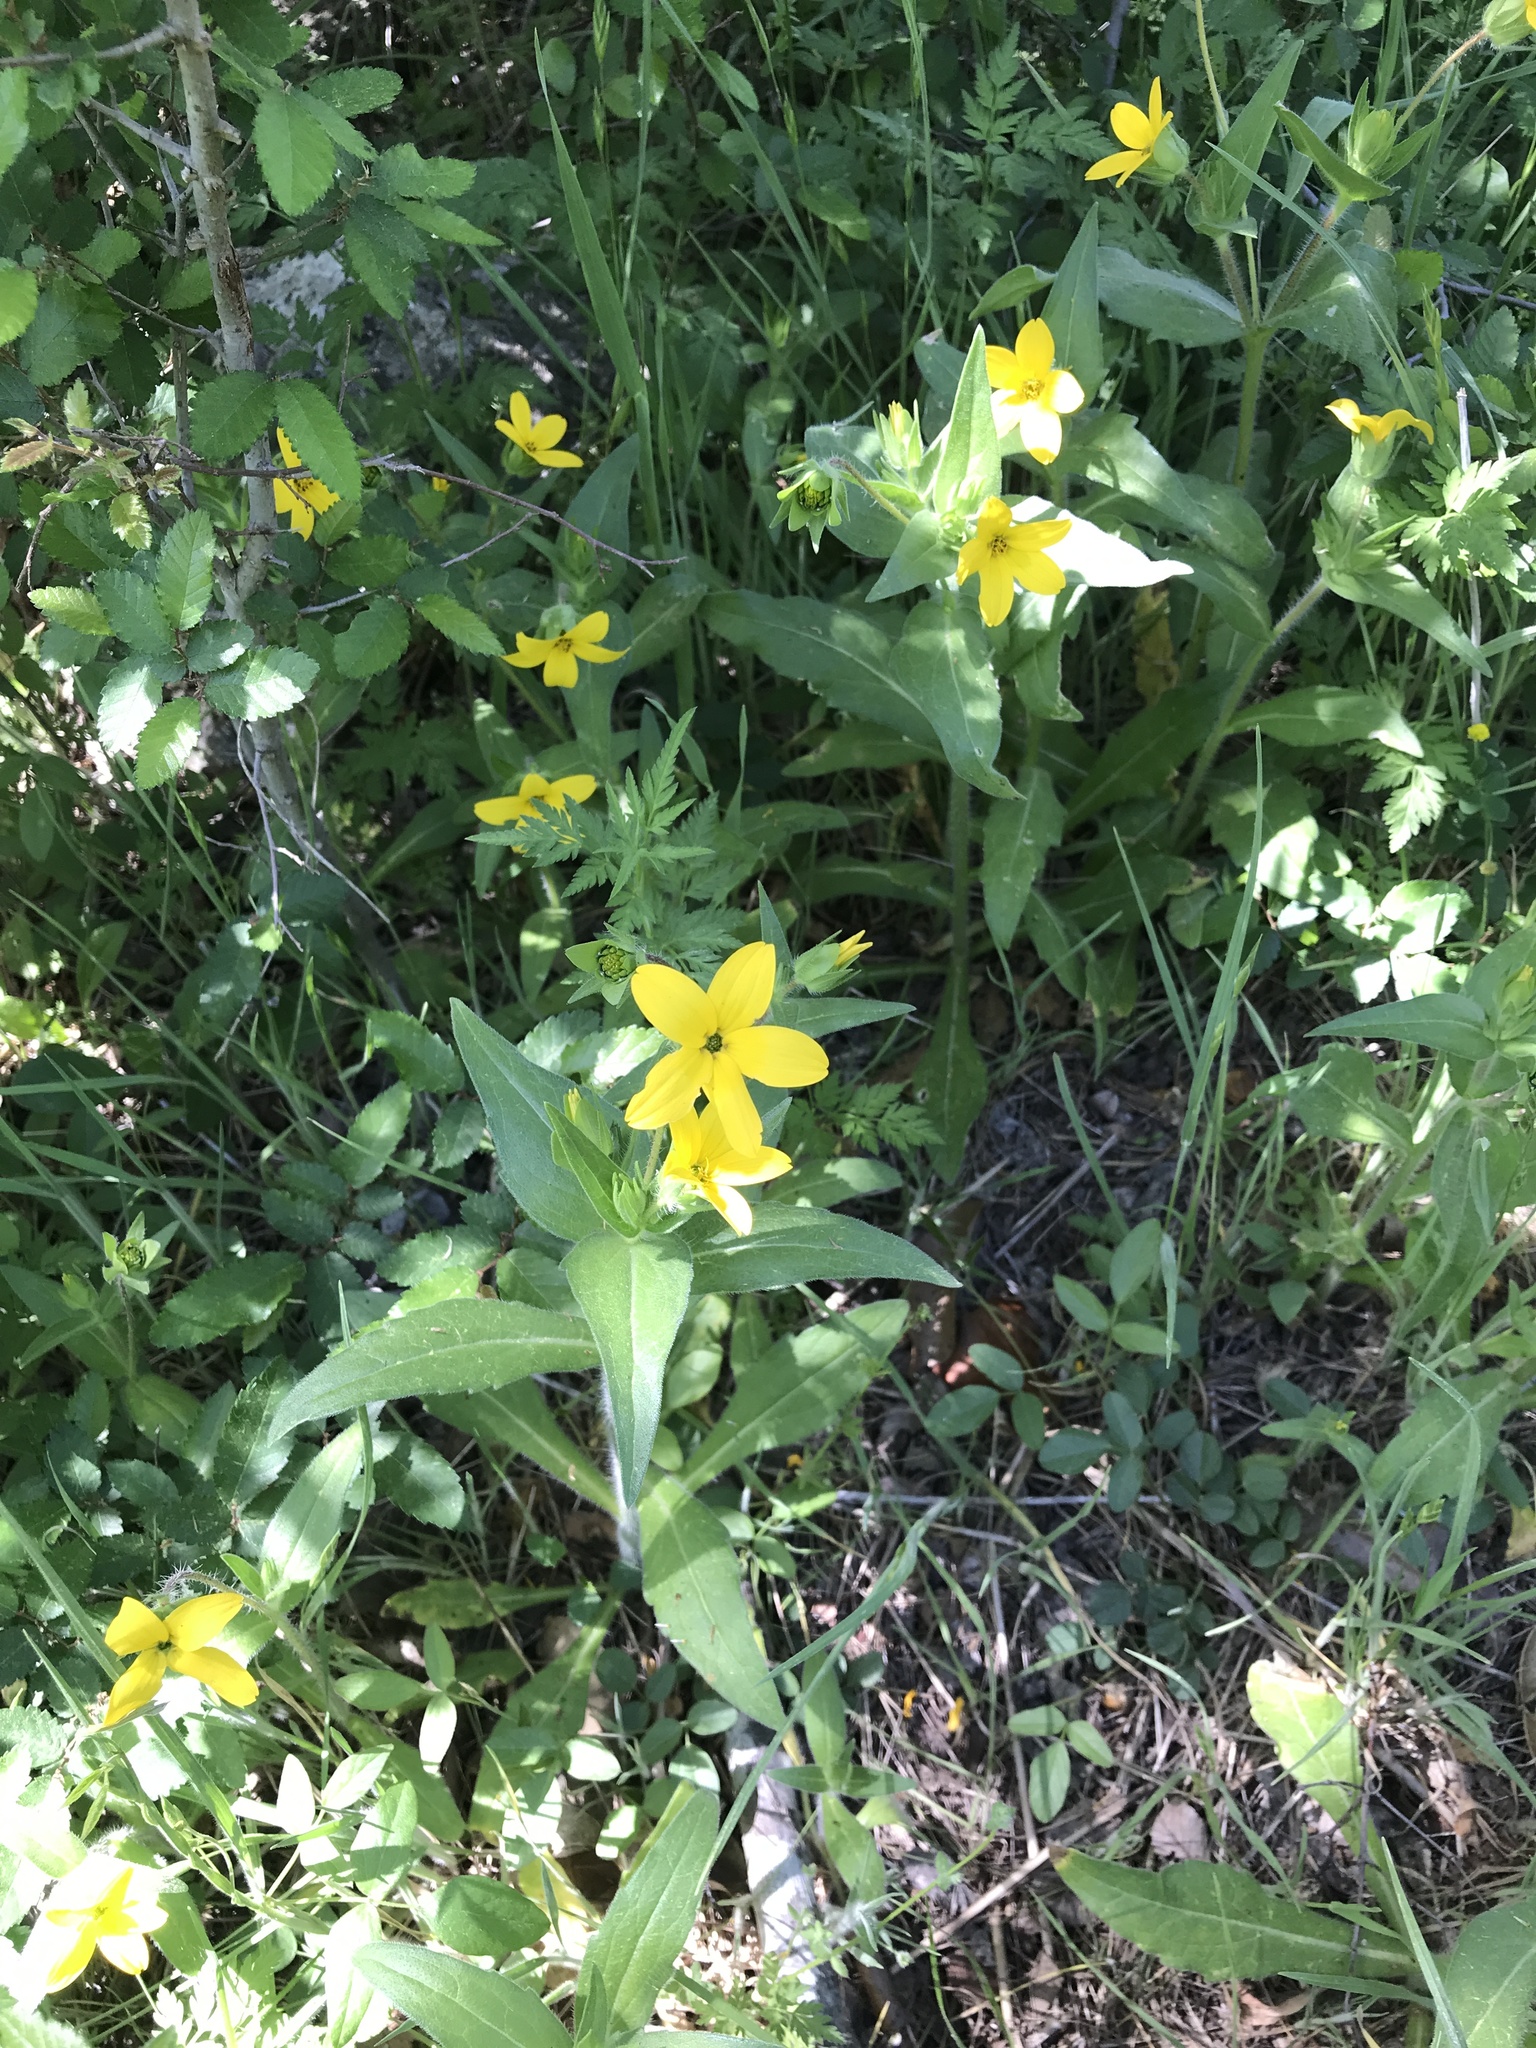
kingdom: Plantae
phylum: Tracheophyta
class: Magnoliopsida
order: Asterales
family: Asteraceae
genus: Lindheimera
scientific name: Lindheimera texana
